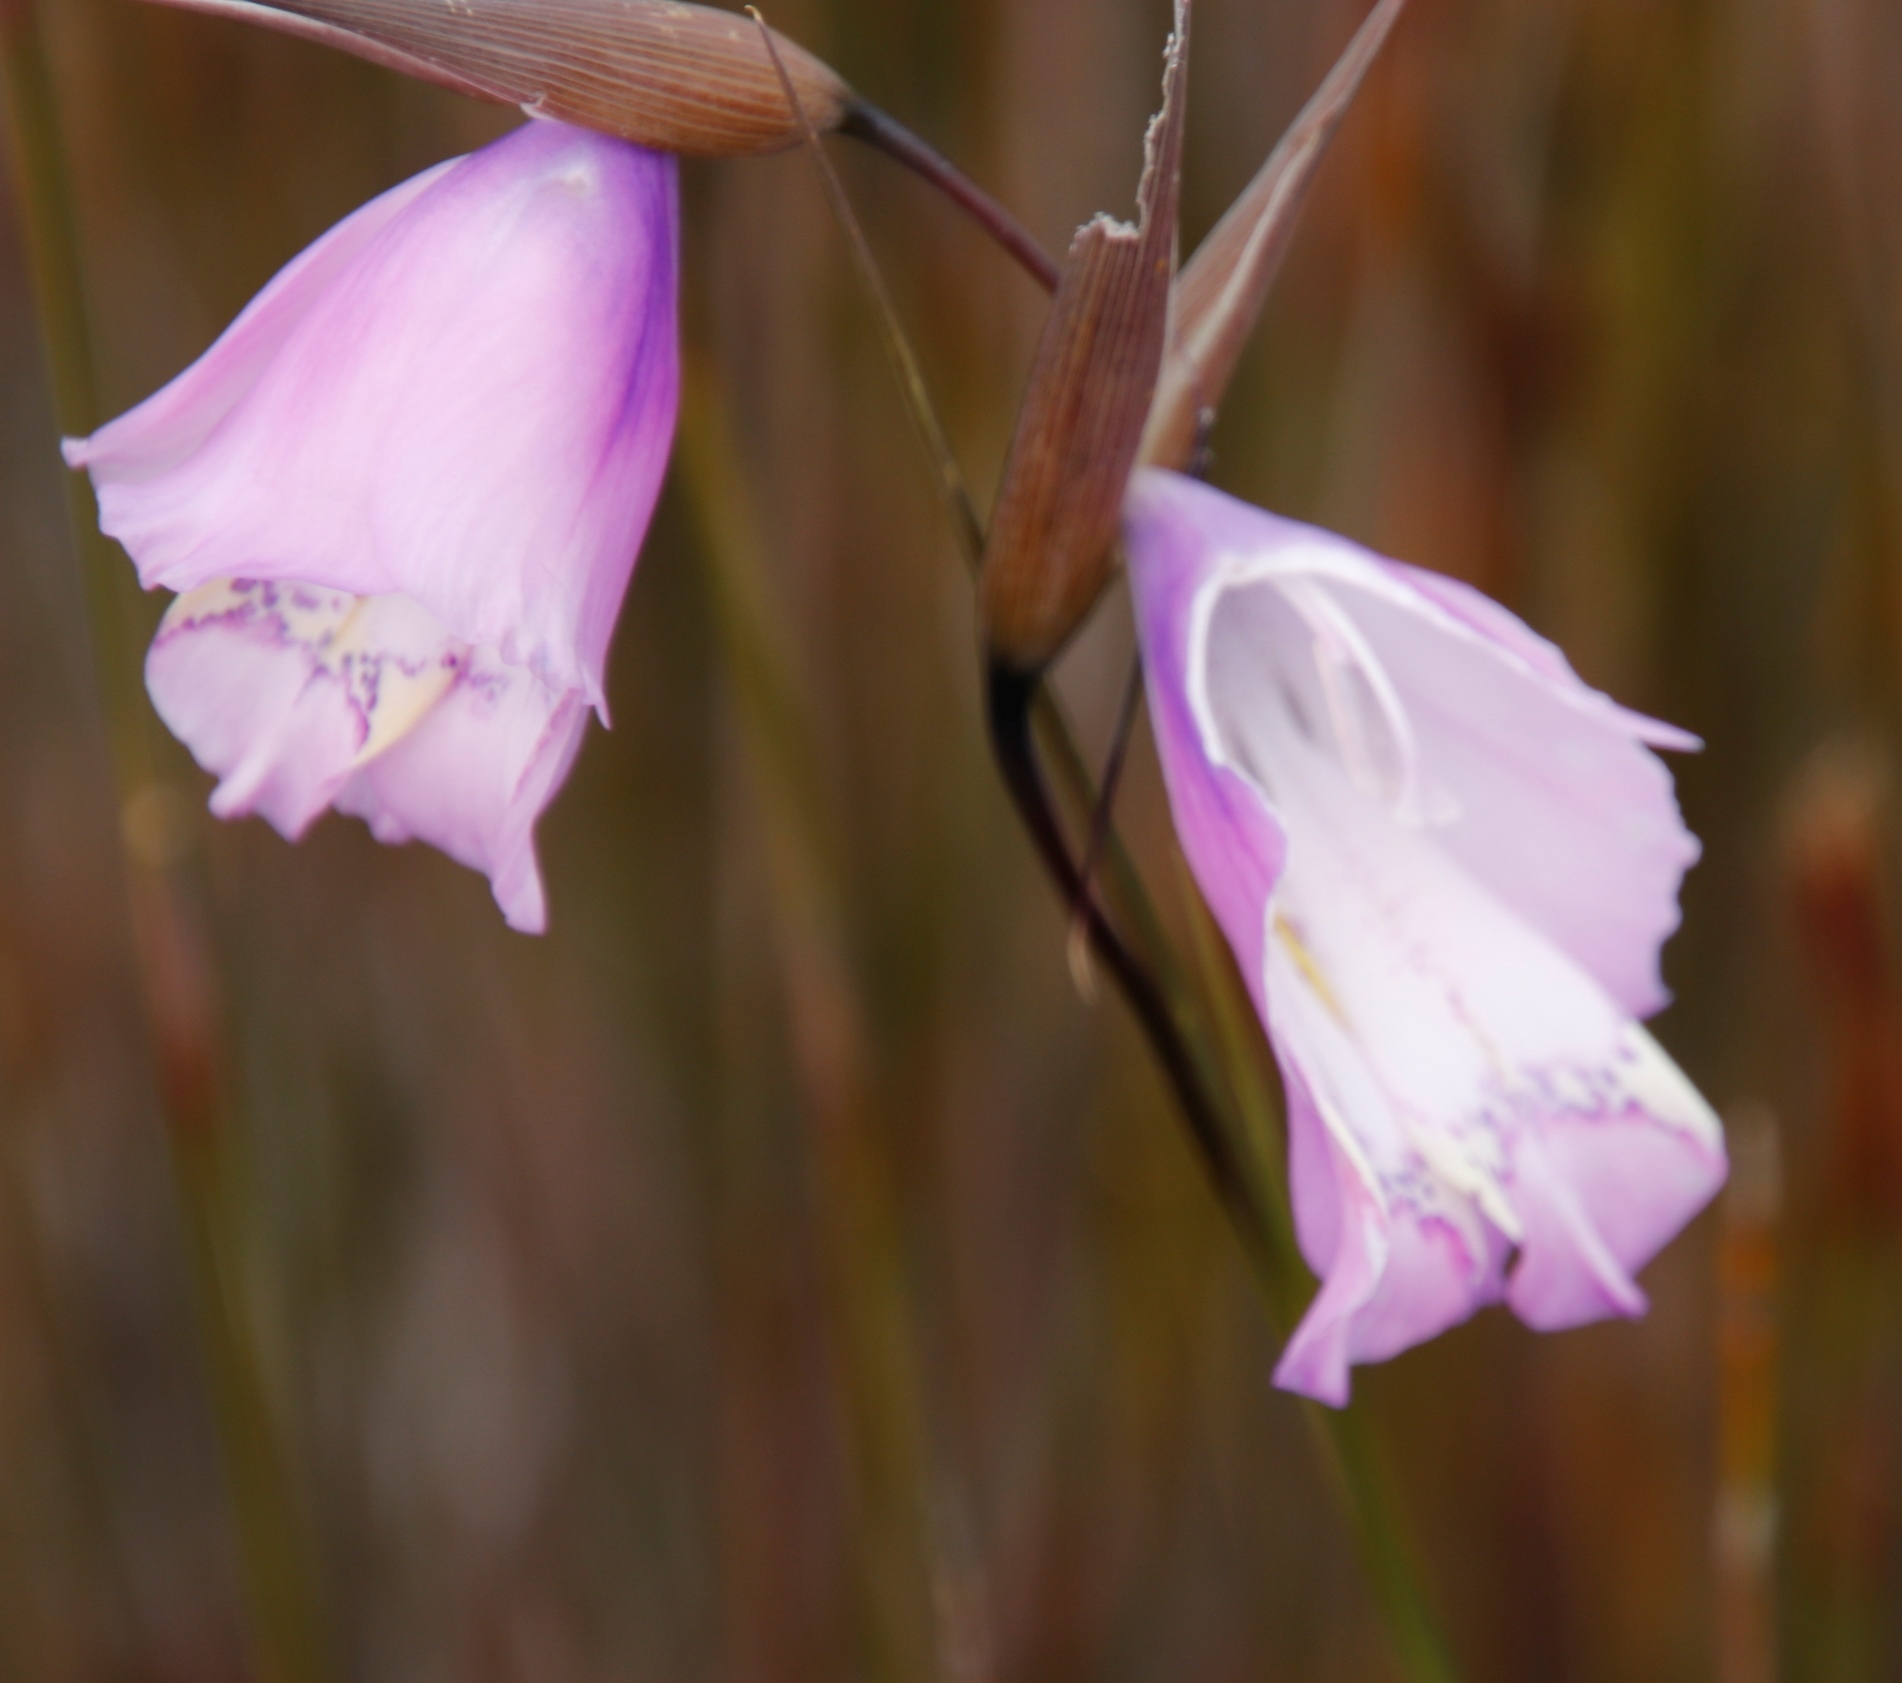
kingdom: Plantae
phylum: Tracheophyta
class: Liliopsida
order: Asparagales
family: Iridaceae
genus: Gladiolus
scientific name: Gladiolus bullatus
